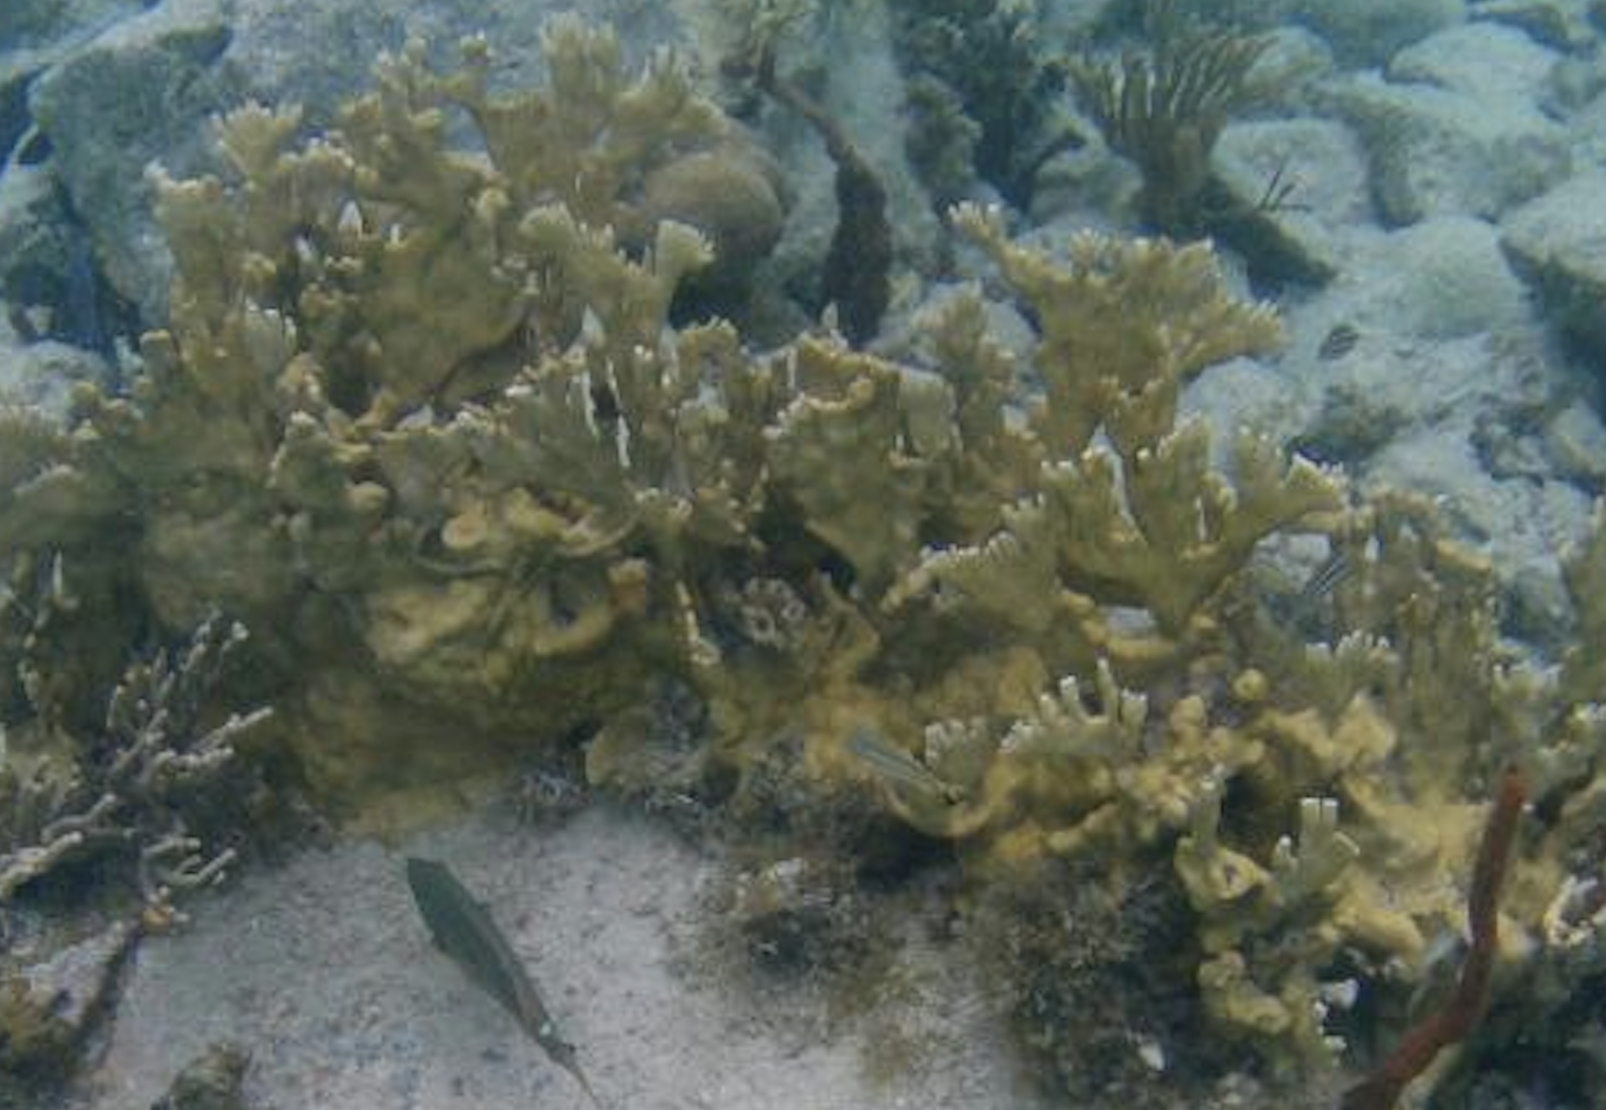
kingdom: Animalia
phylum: Cnidaria
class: Hydrozoa
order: Anthoathecata
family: Milleporidae
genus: Millepora
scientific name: Millepora alcicornis
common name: Branching fire coral
